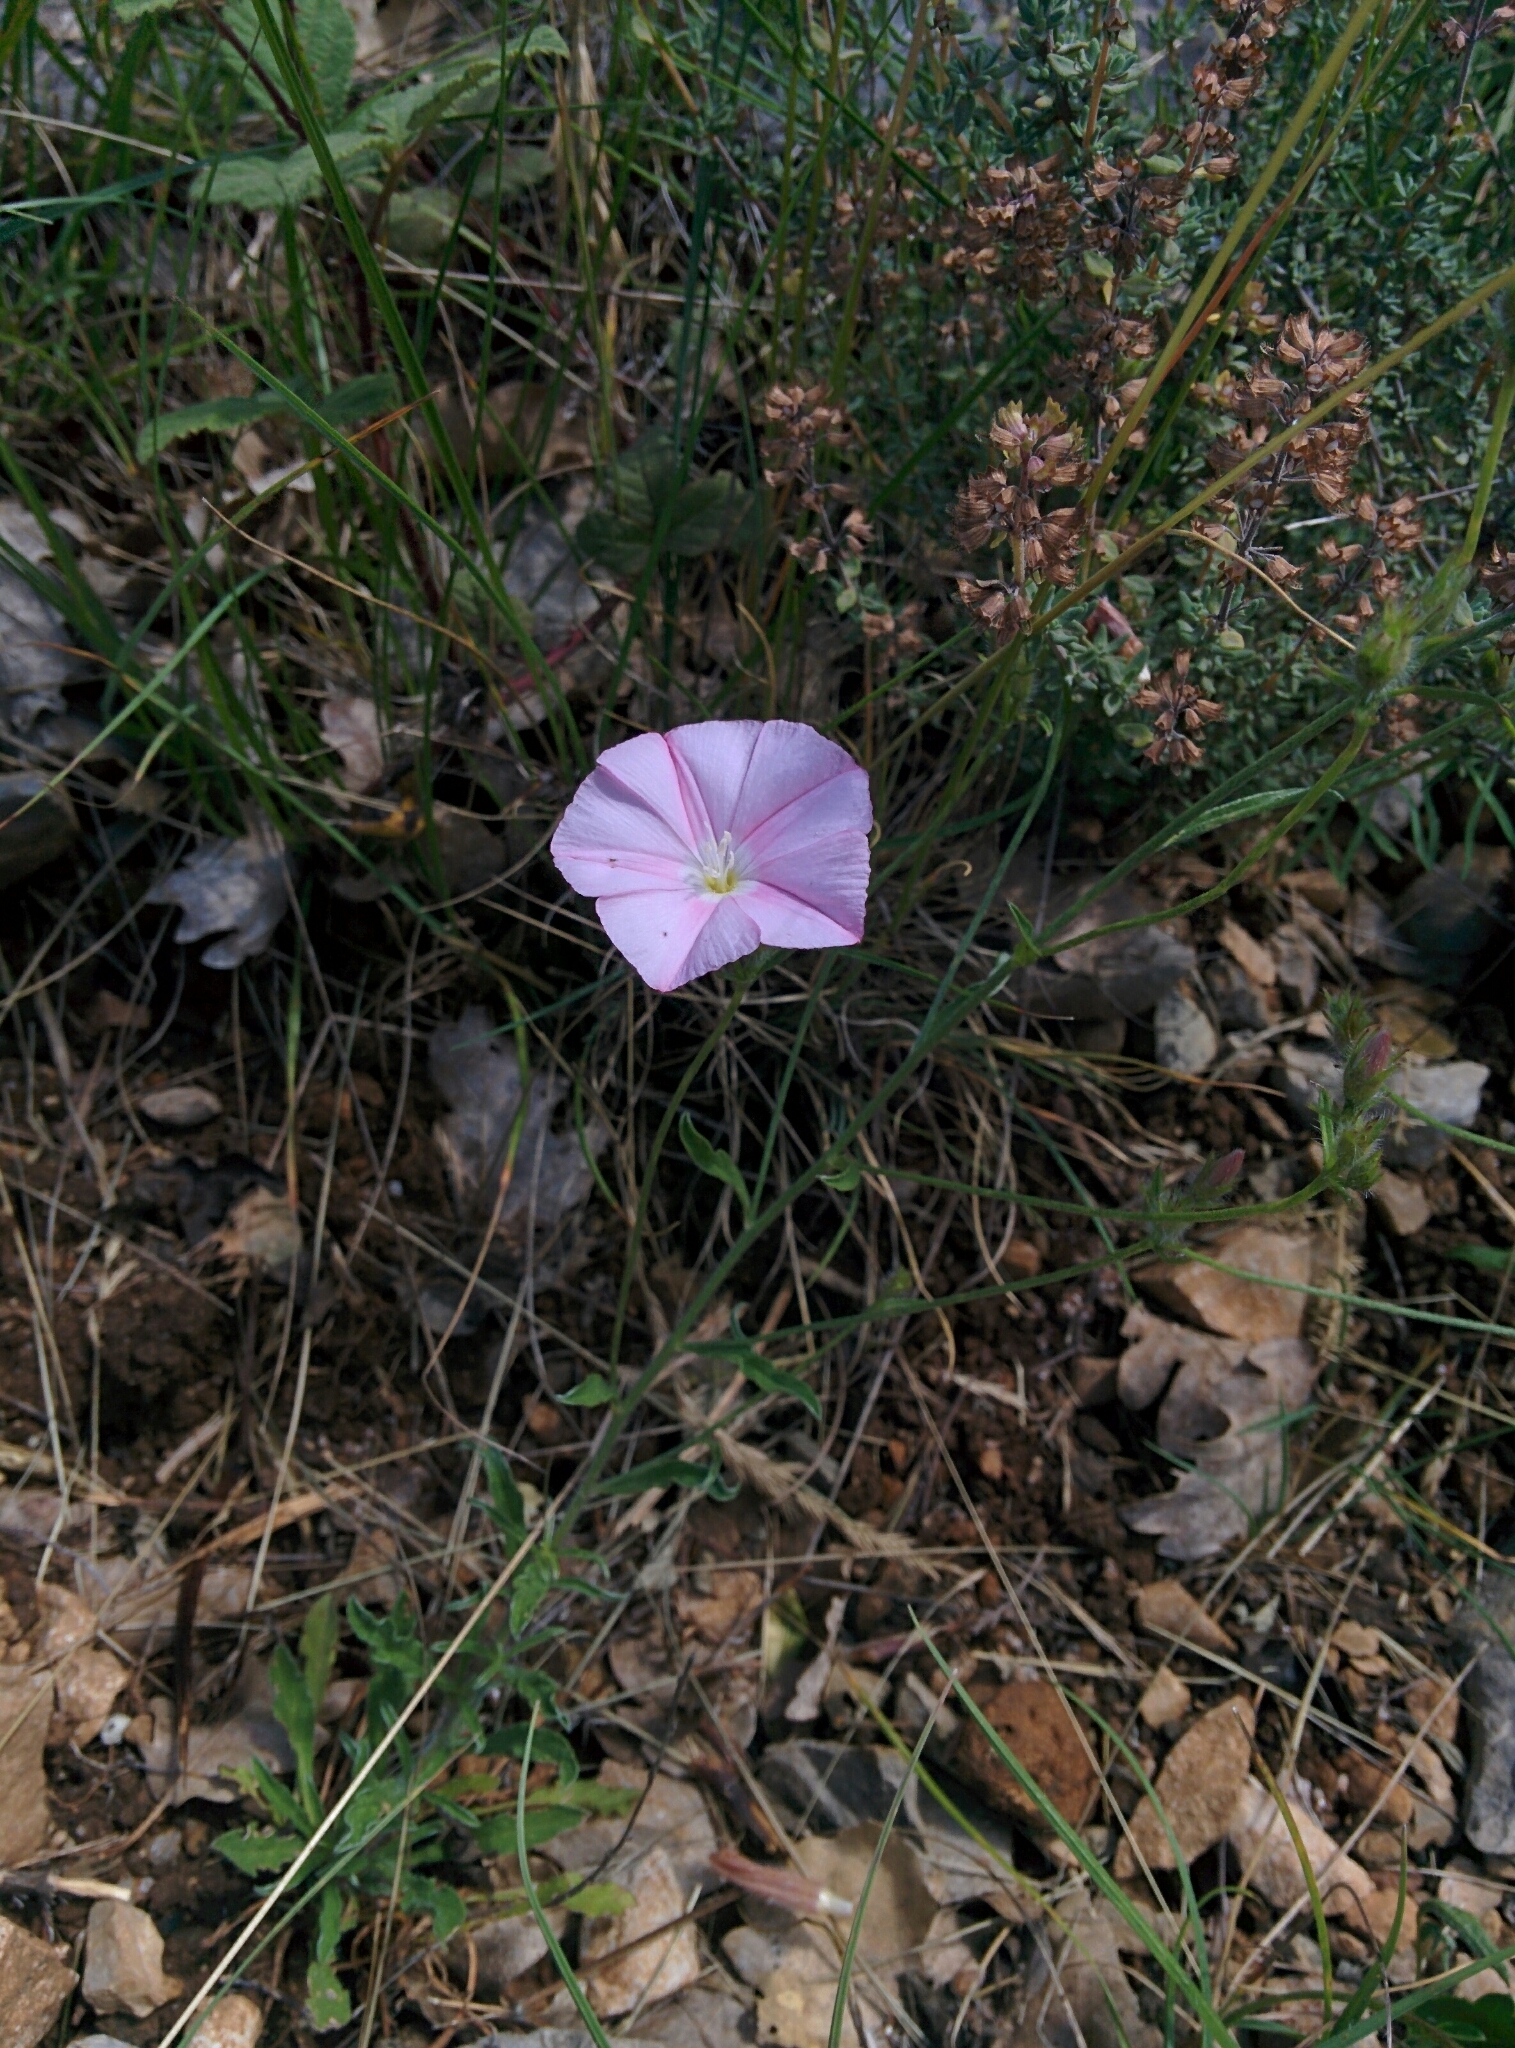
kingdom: Plantae
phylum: Tracheophyta
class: Magnoliopsida
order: Solanales
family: Convolvulaceae
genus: Convolvulus
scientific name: Convolvulus cantabrica
